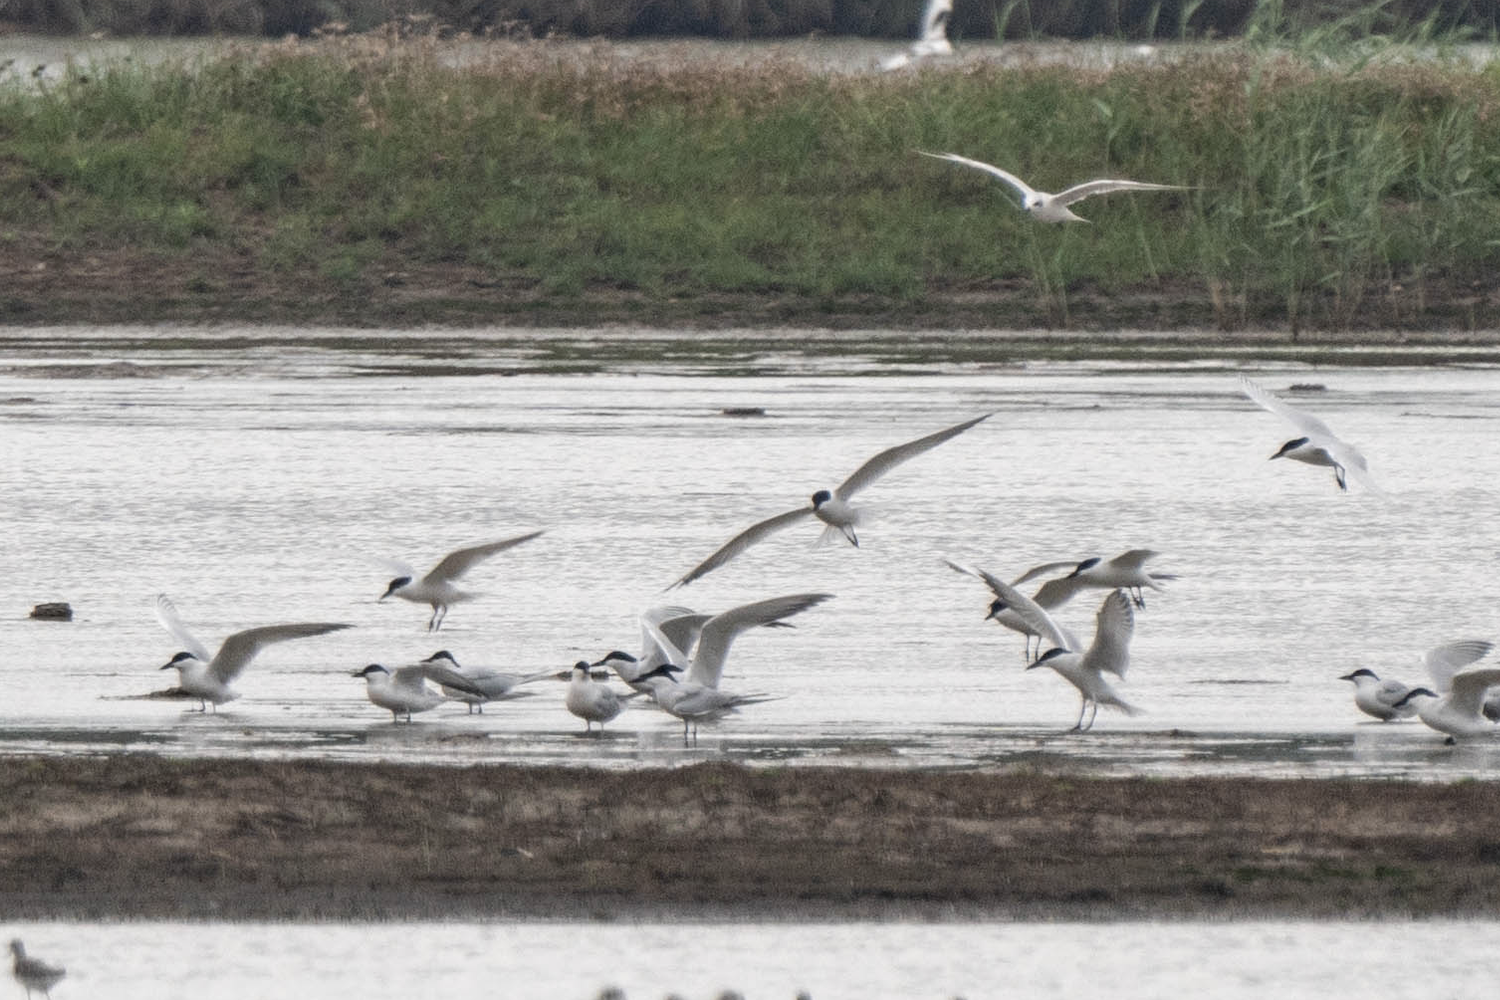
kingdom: Animalia
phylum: Chordata
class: Aves
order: Charadriiformes
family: Laridae
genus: Gelochelidon
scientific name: Gelochelidon nilotica
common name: Gull-billed tern
